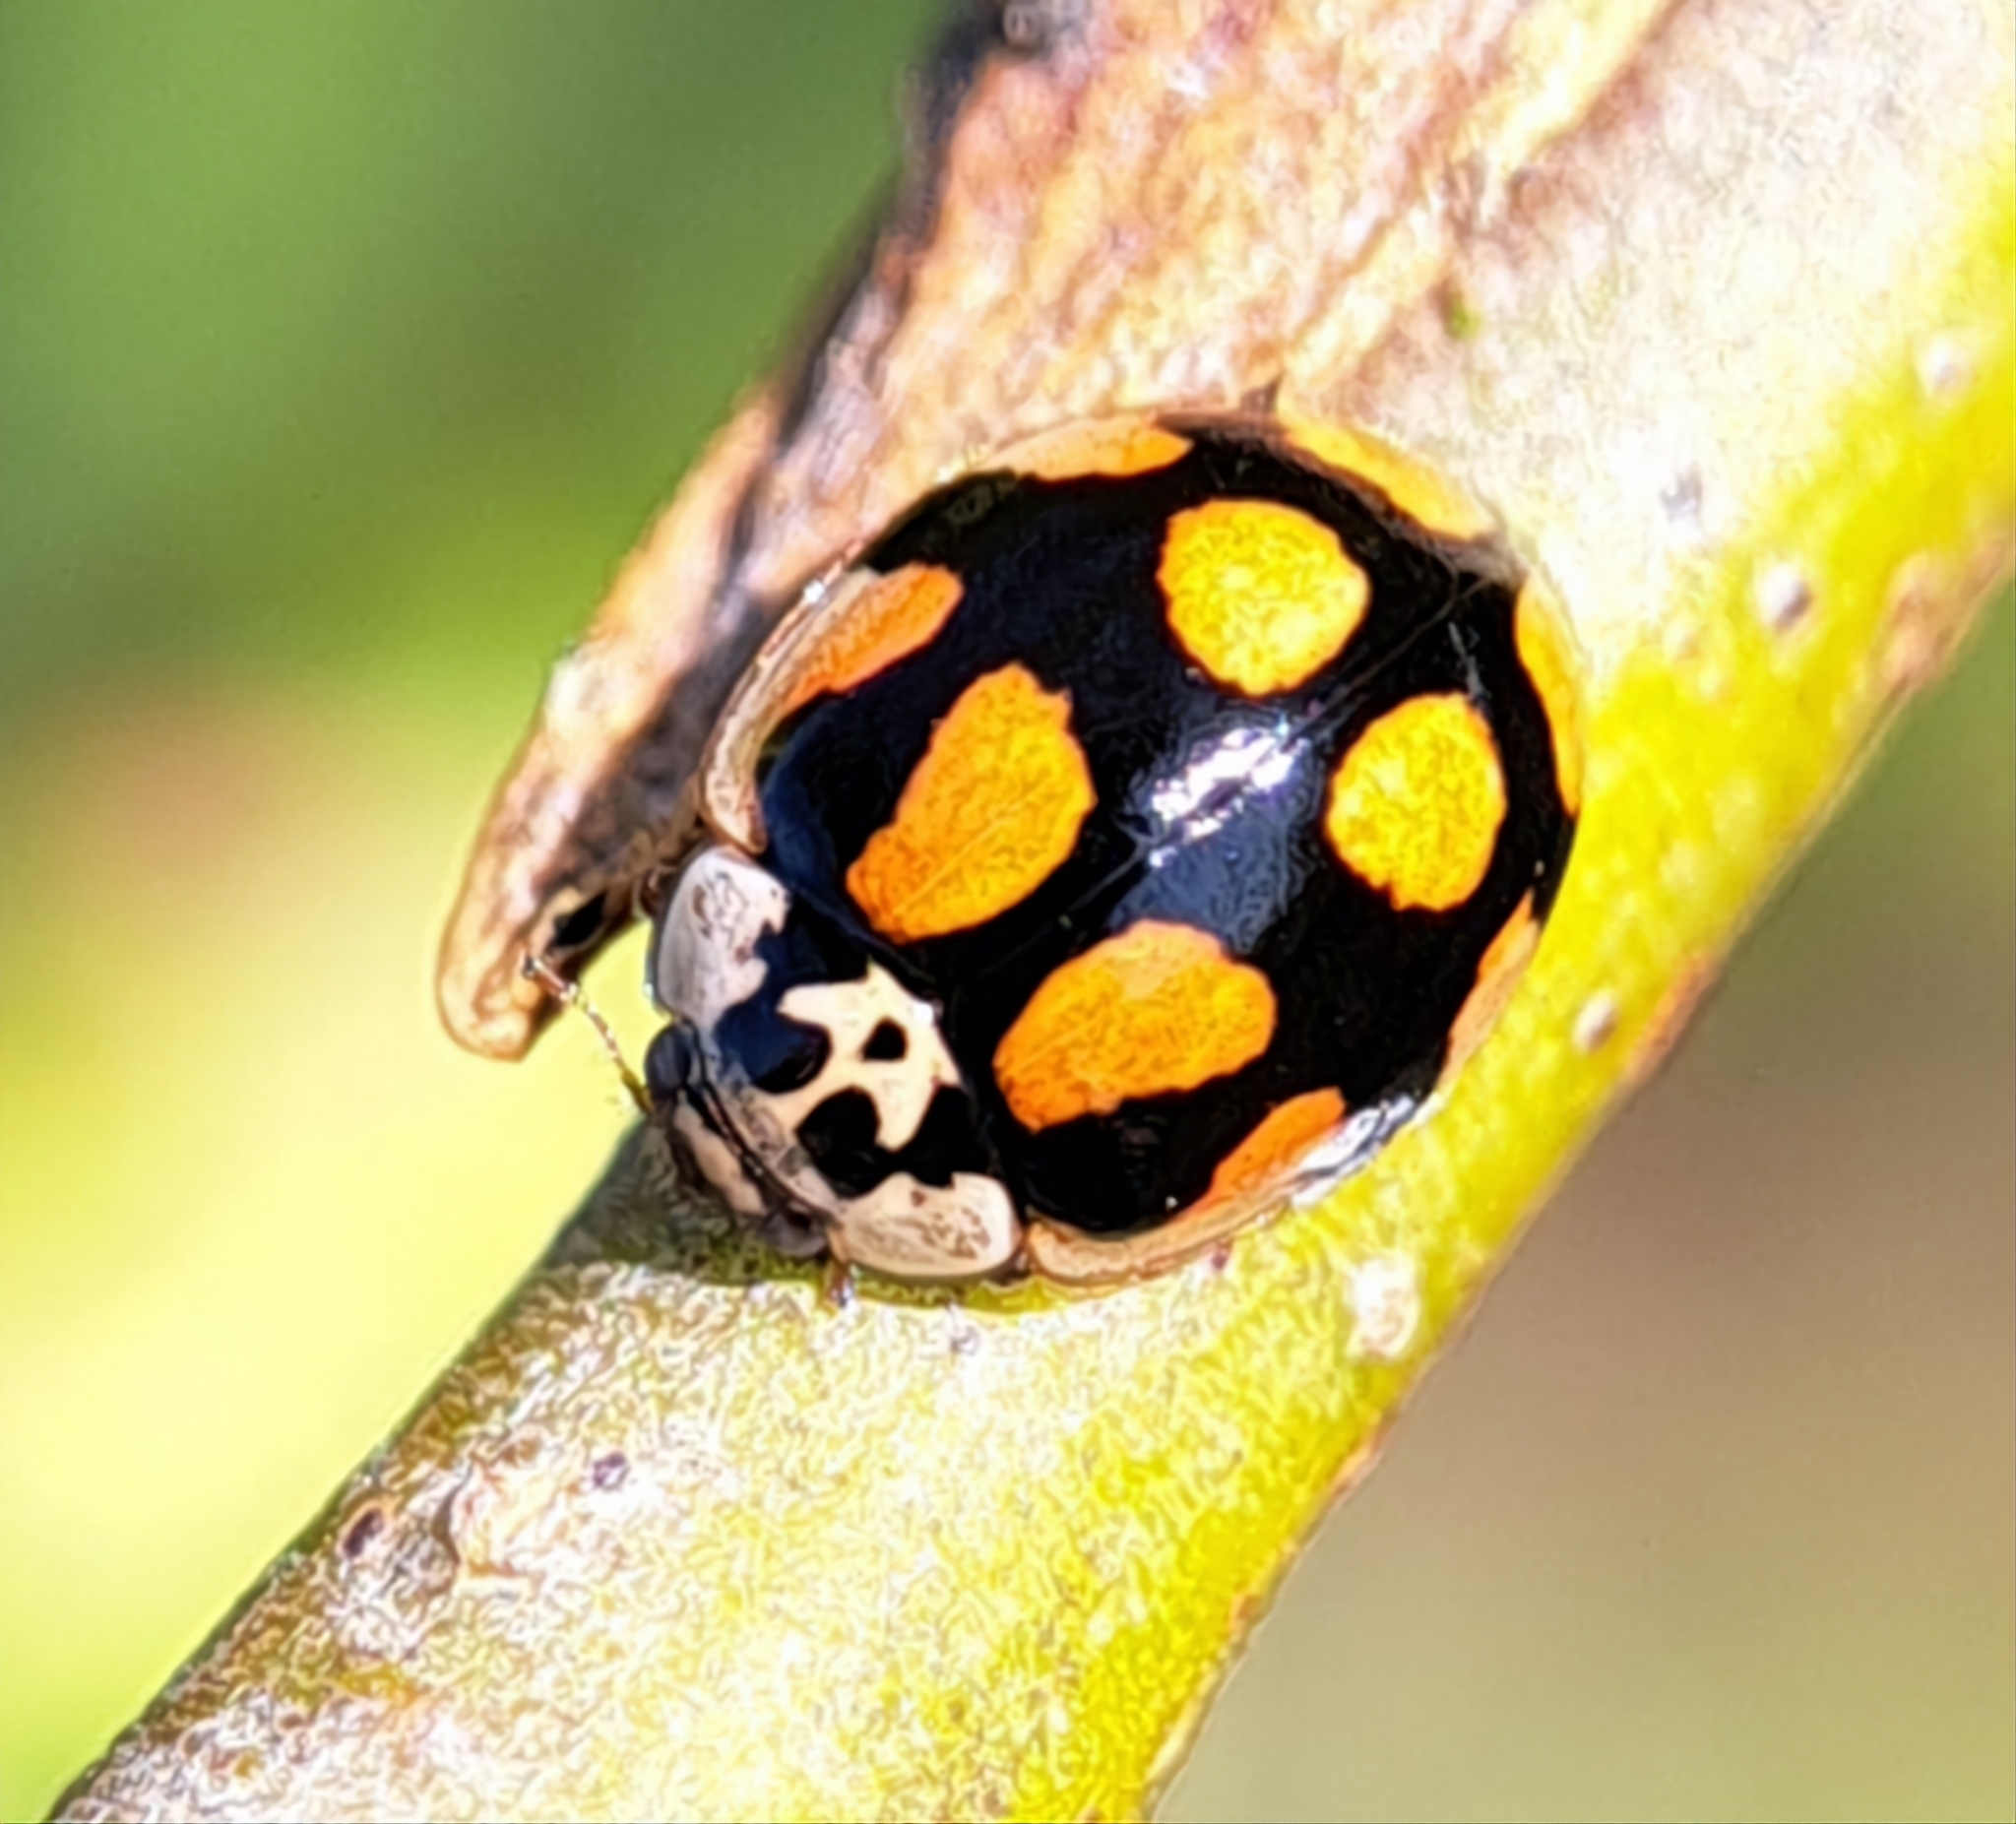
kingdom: Animalia
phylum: Arthropoda
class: Insecta
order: Coleoptera
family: Coccinellidae
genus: Adalia
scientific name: Adalia decempunctata
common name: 10-spot ladybird
